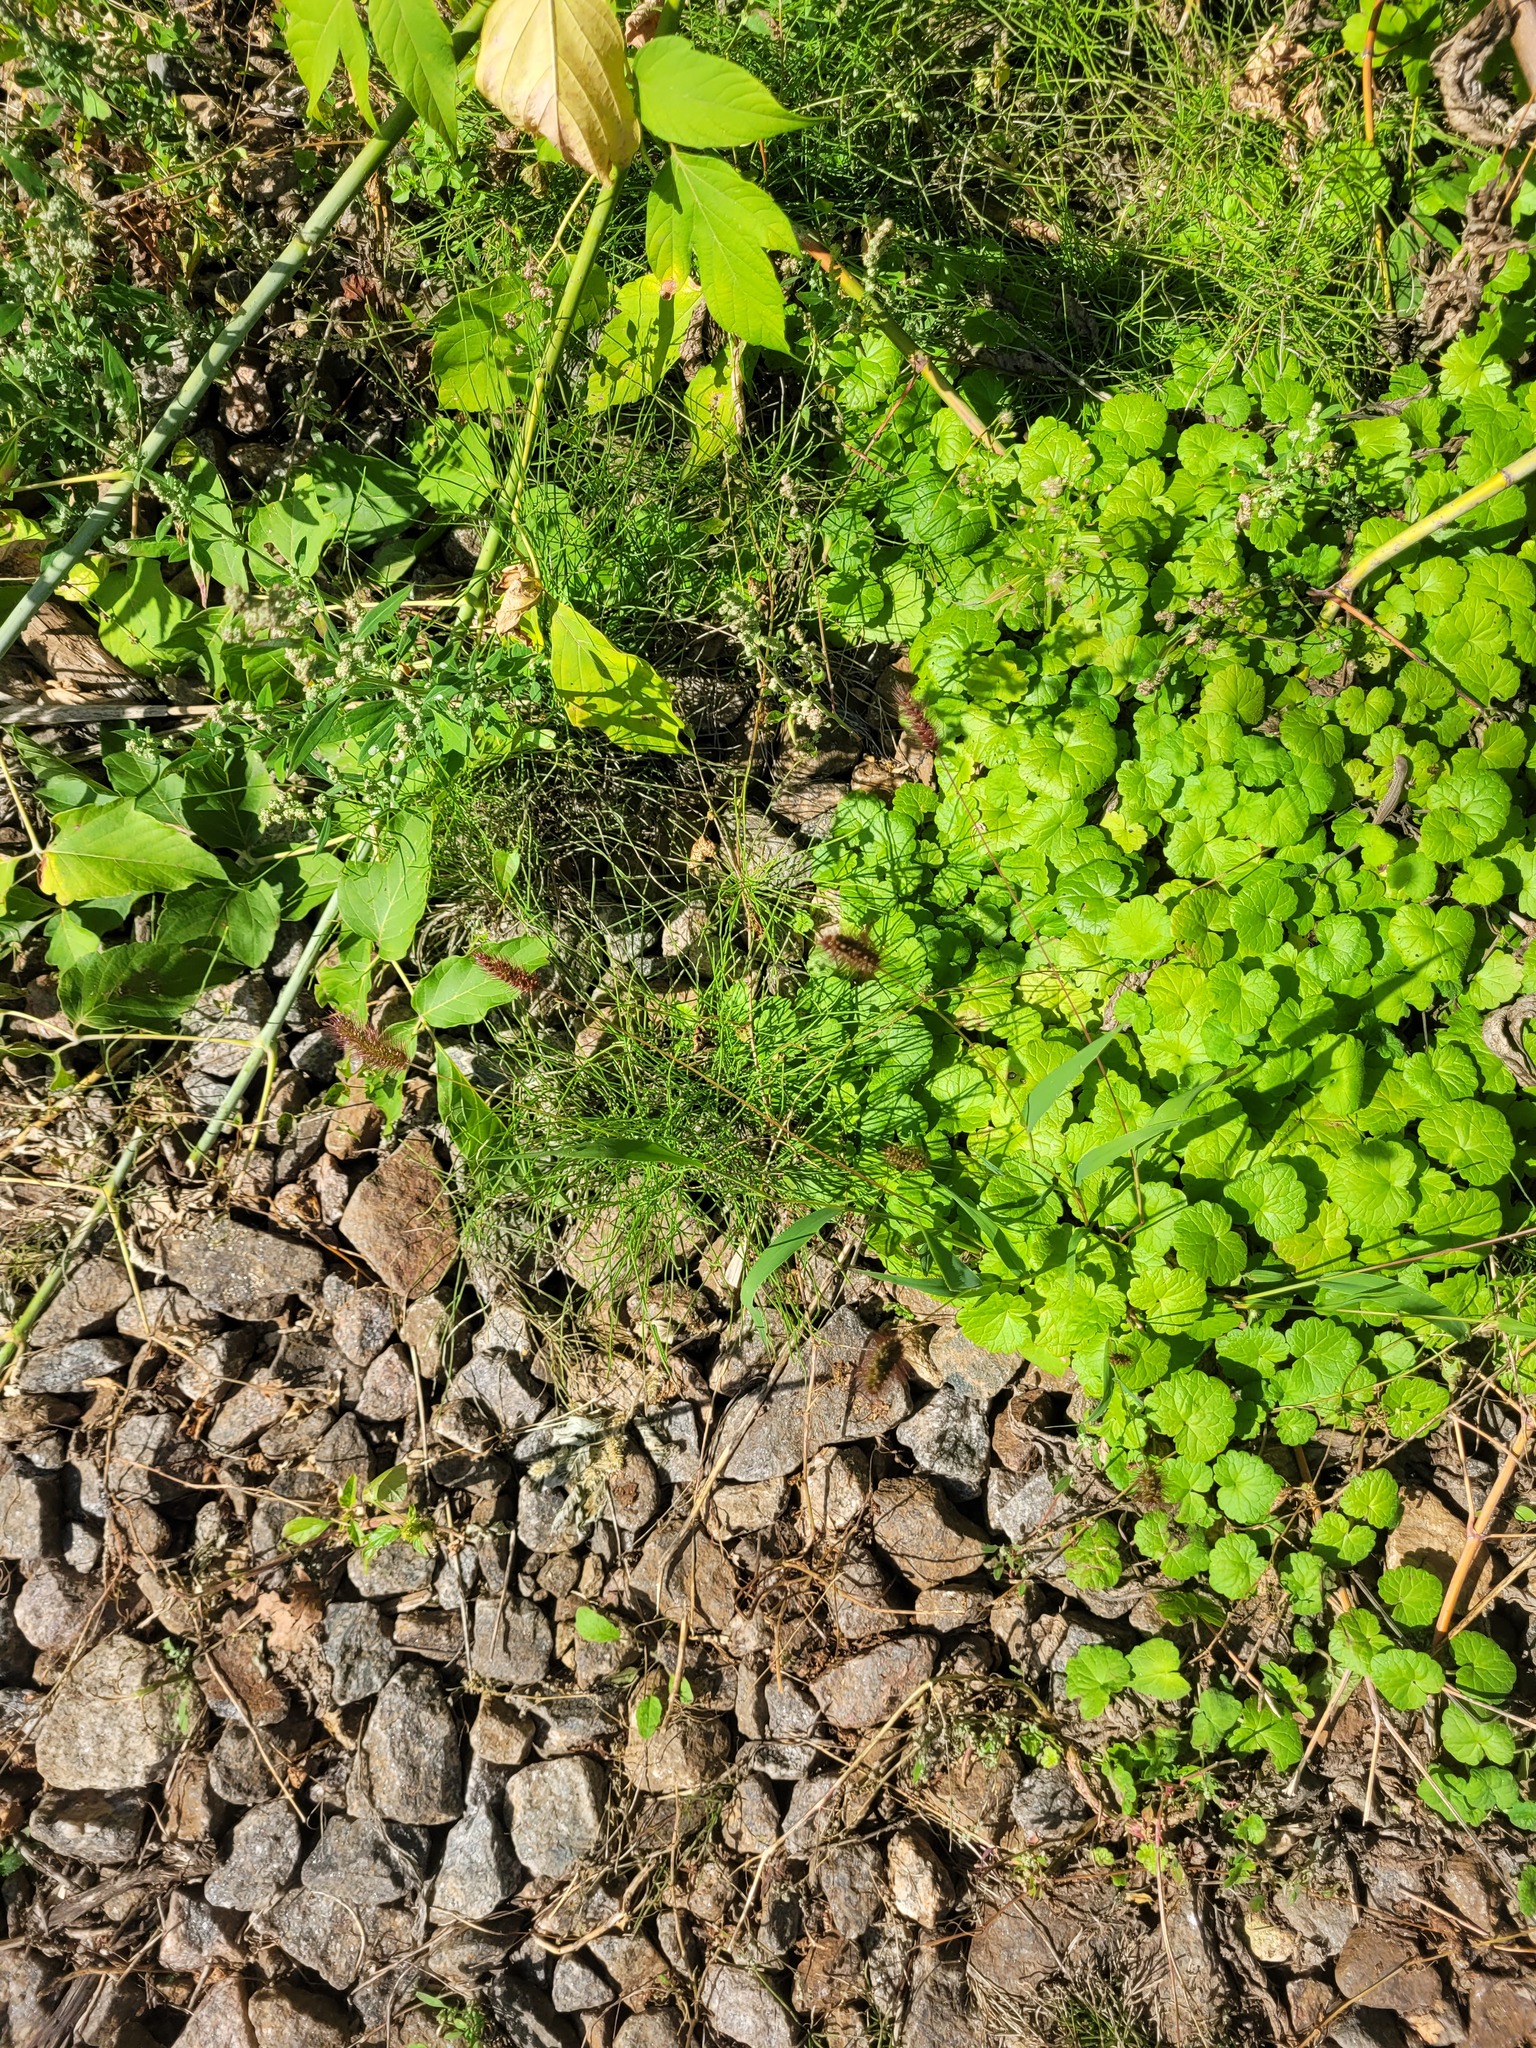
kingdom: Plantae
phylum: Tracheophyta
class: Liliopsida
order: Poales
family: Poaceae
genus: Setaria
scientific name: Setaria viridis
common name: Green bristlegrass
